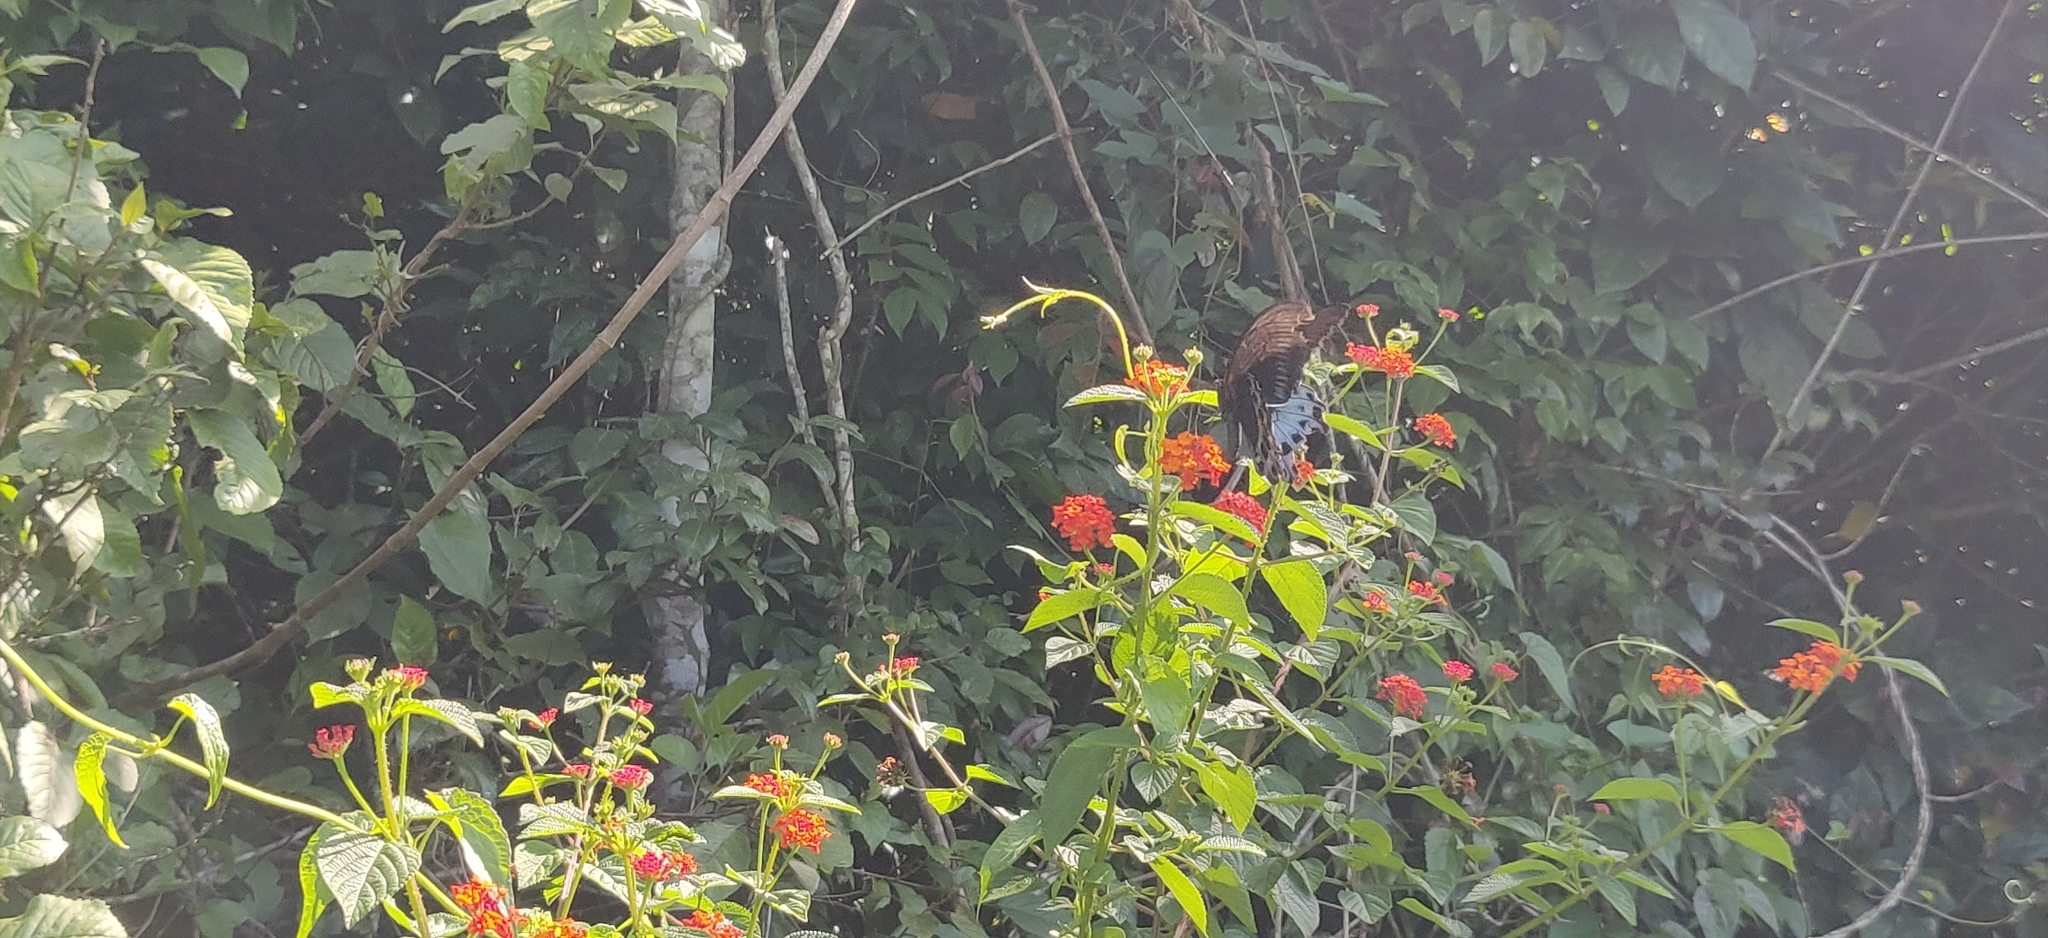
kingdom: Animalia
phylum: Arthropoda
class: Insecta
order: Lepidoptera
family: Papilionidae
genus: Papilio
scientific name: Papilio memnon
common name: Great mormon
